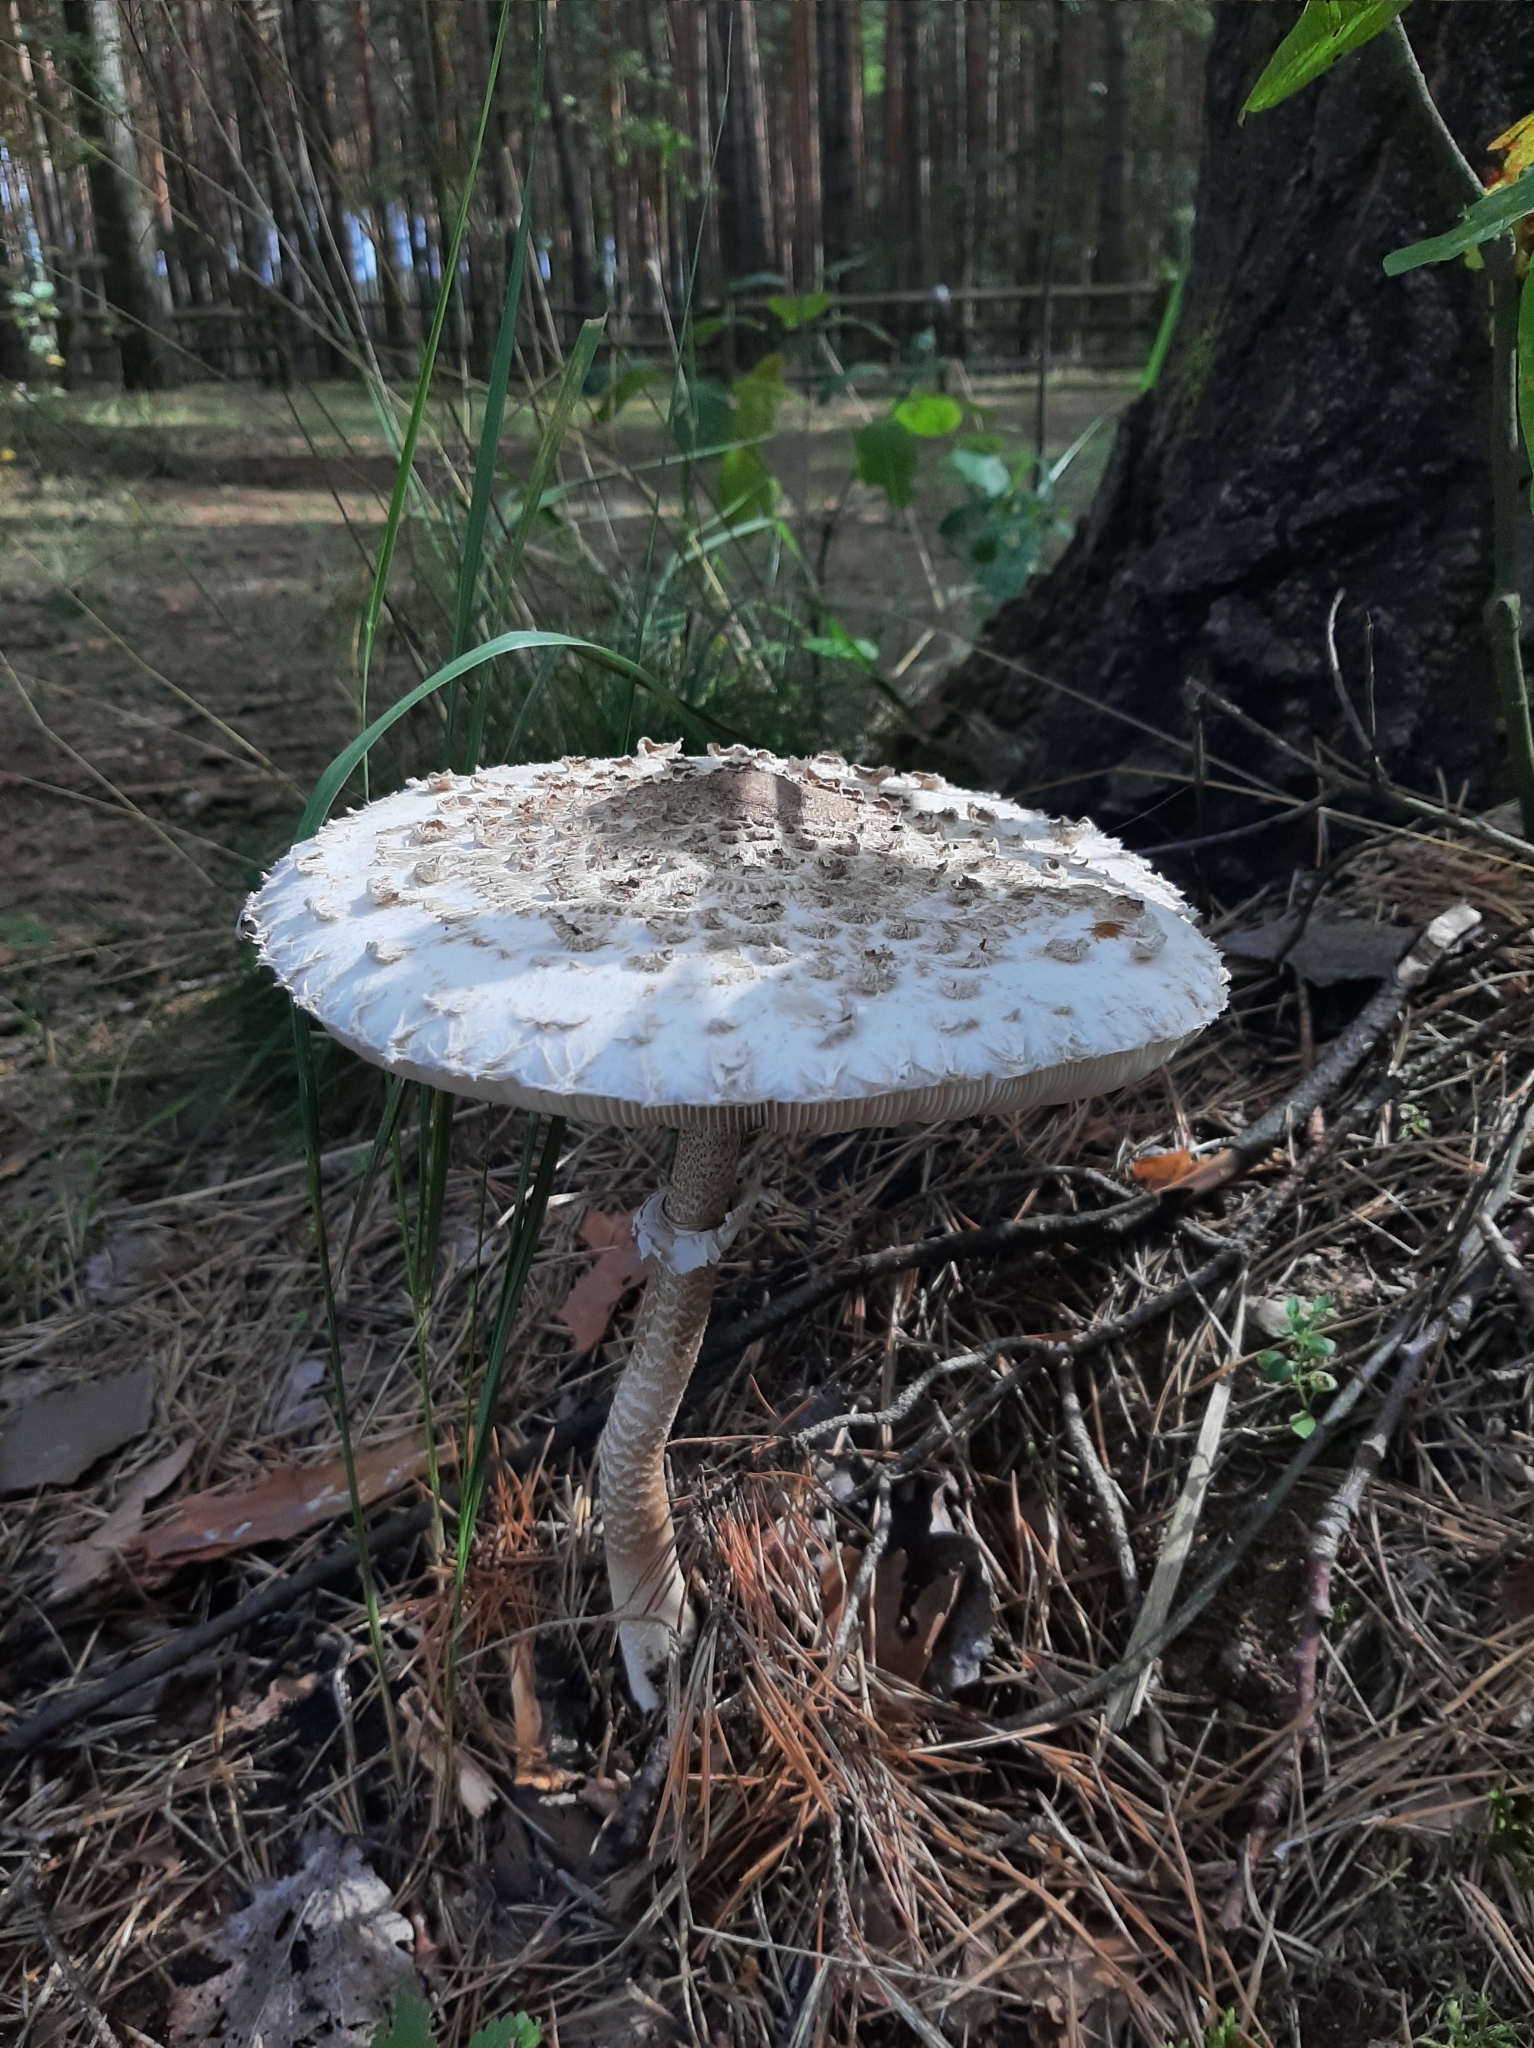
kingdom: Fungi
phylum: Basidiomycota
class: Agaricomycetes
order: Agaricales
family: Agaricaceae
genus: Macrolepiota
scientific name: Macrolepiota procera
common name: Parasol
